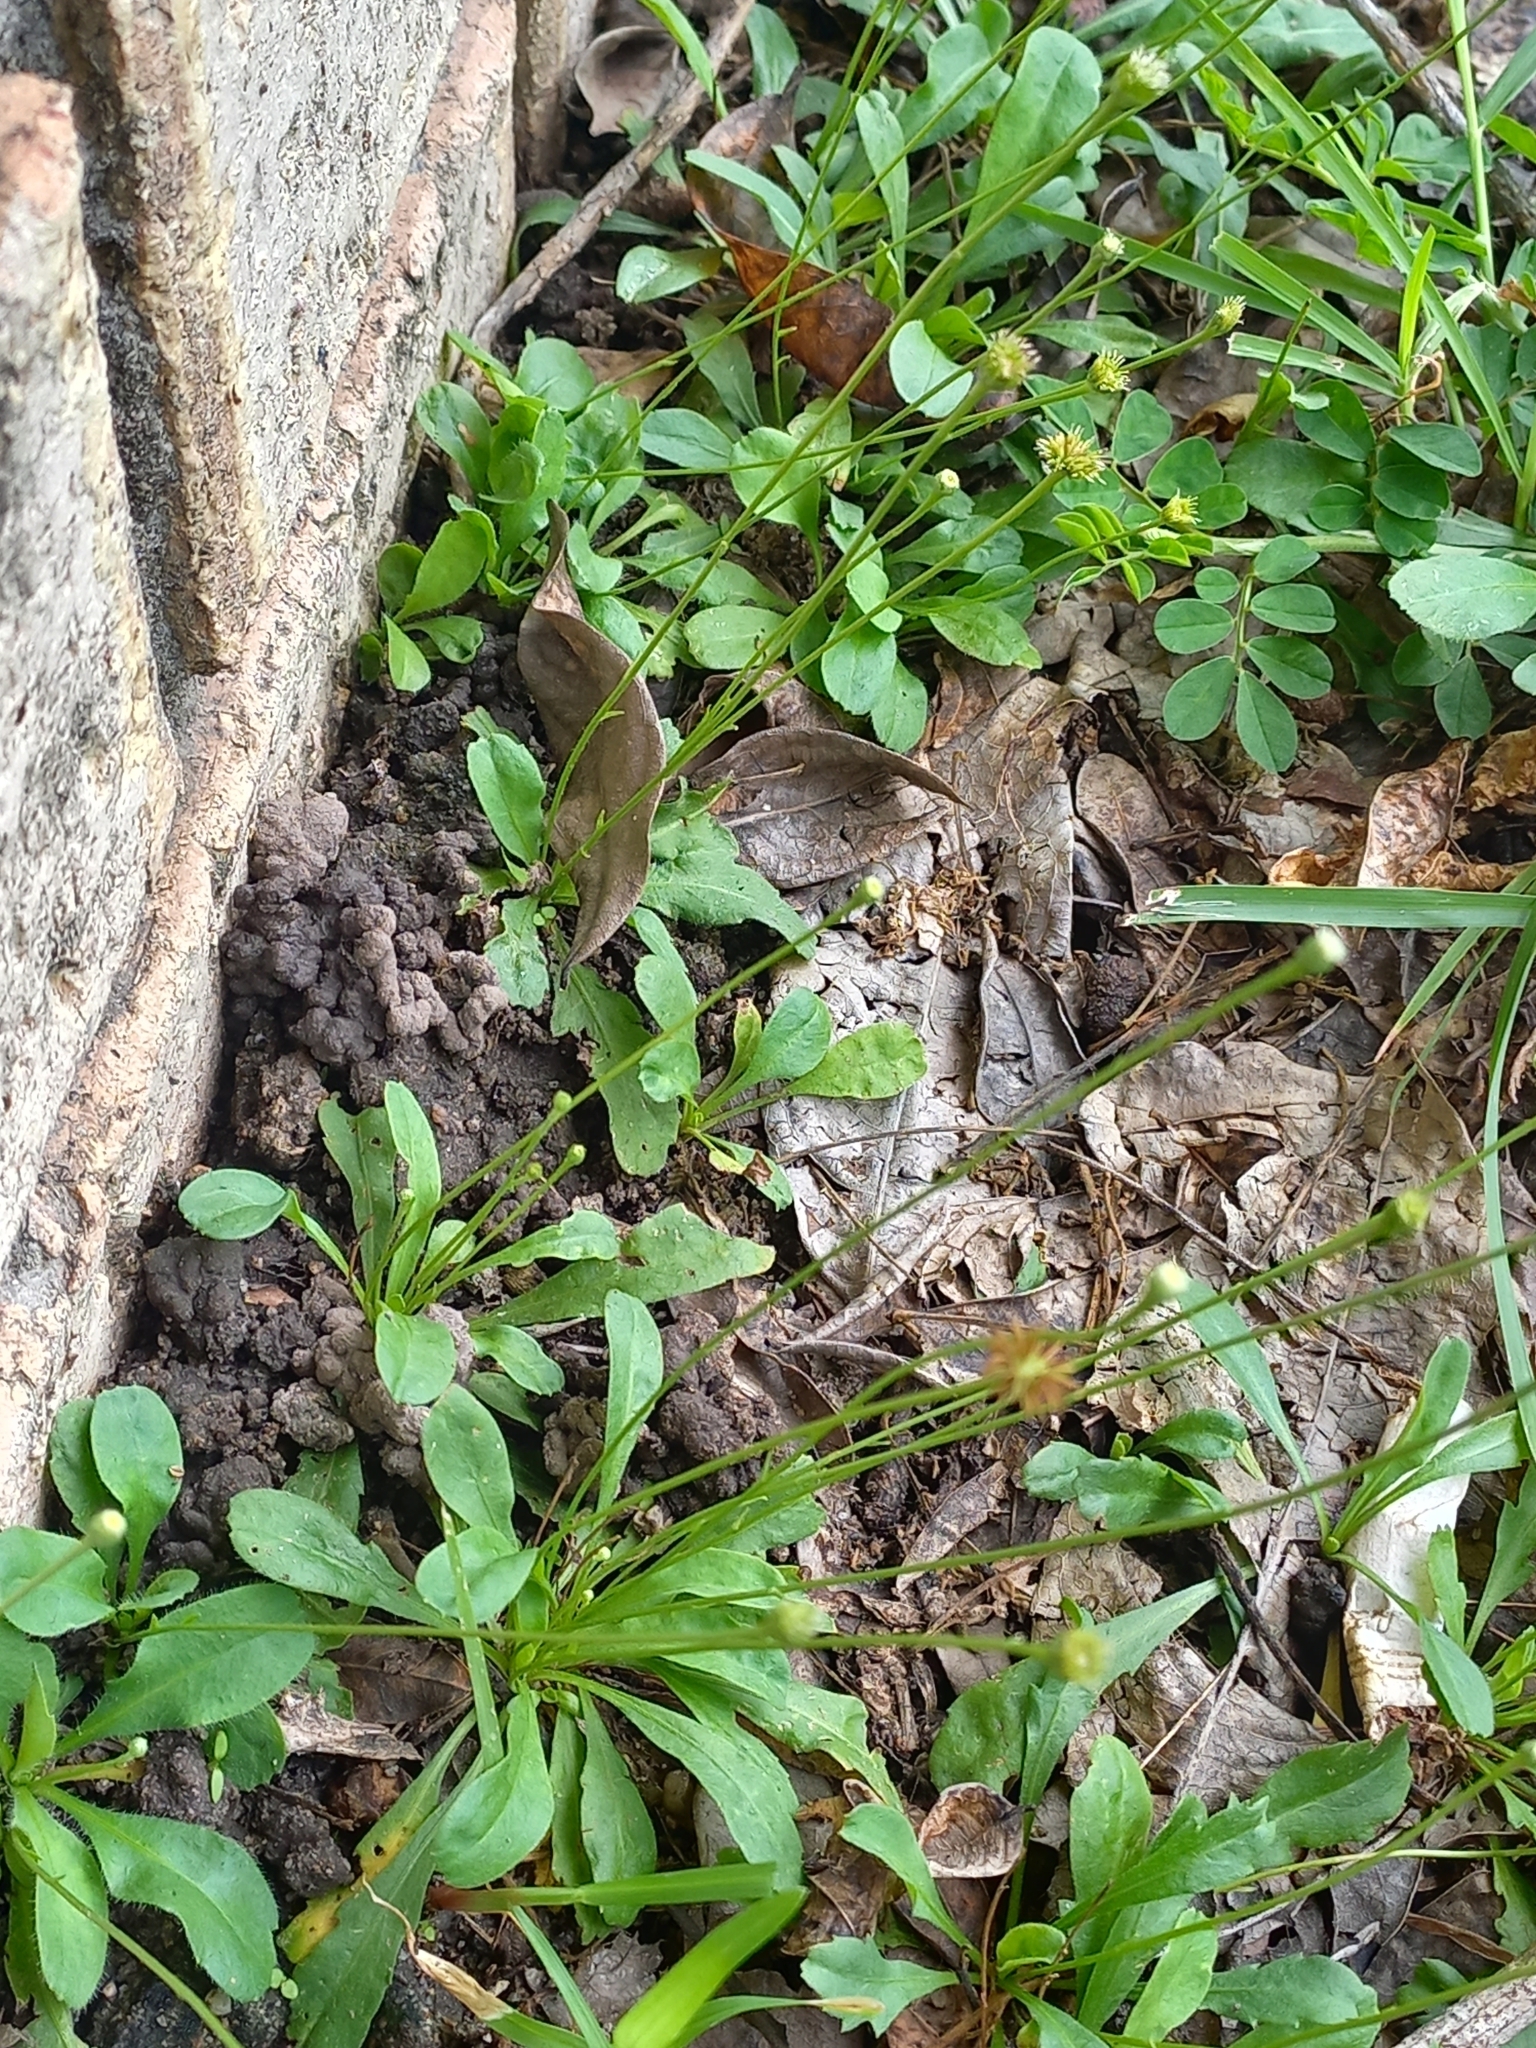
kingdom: Plantae
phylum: Tracheophyta
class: Magnoliopsida
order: Asterales
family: Asteraceae
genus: Solenogyne
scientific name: Solenogyne bellioides
